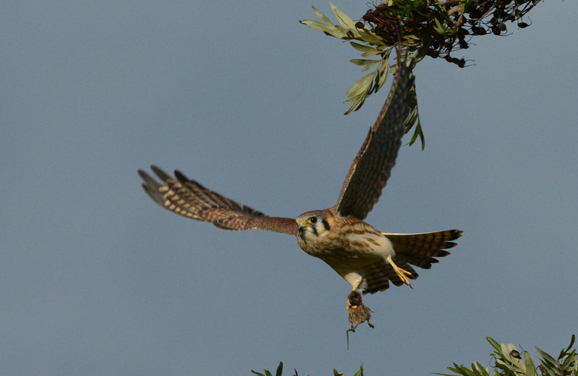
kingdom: Animalia
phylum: Chordata
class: Aves
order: Falconiformes
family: Falconidae
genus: Falco
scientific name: Falco sparverius
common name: American kestrel
